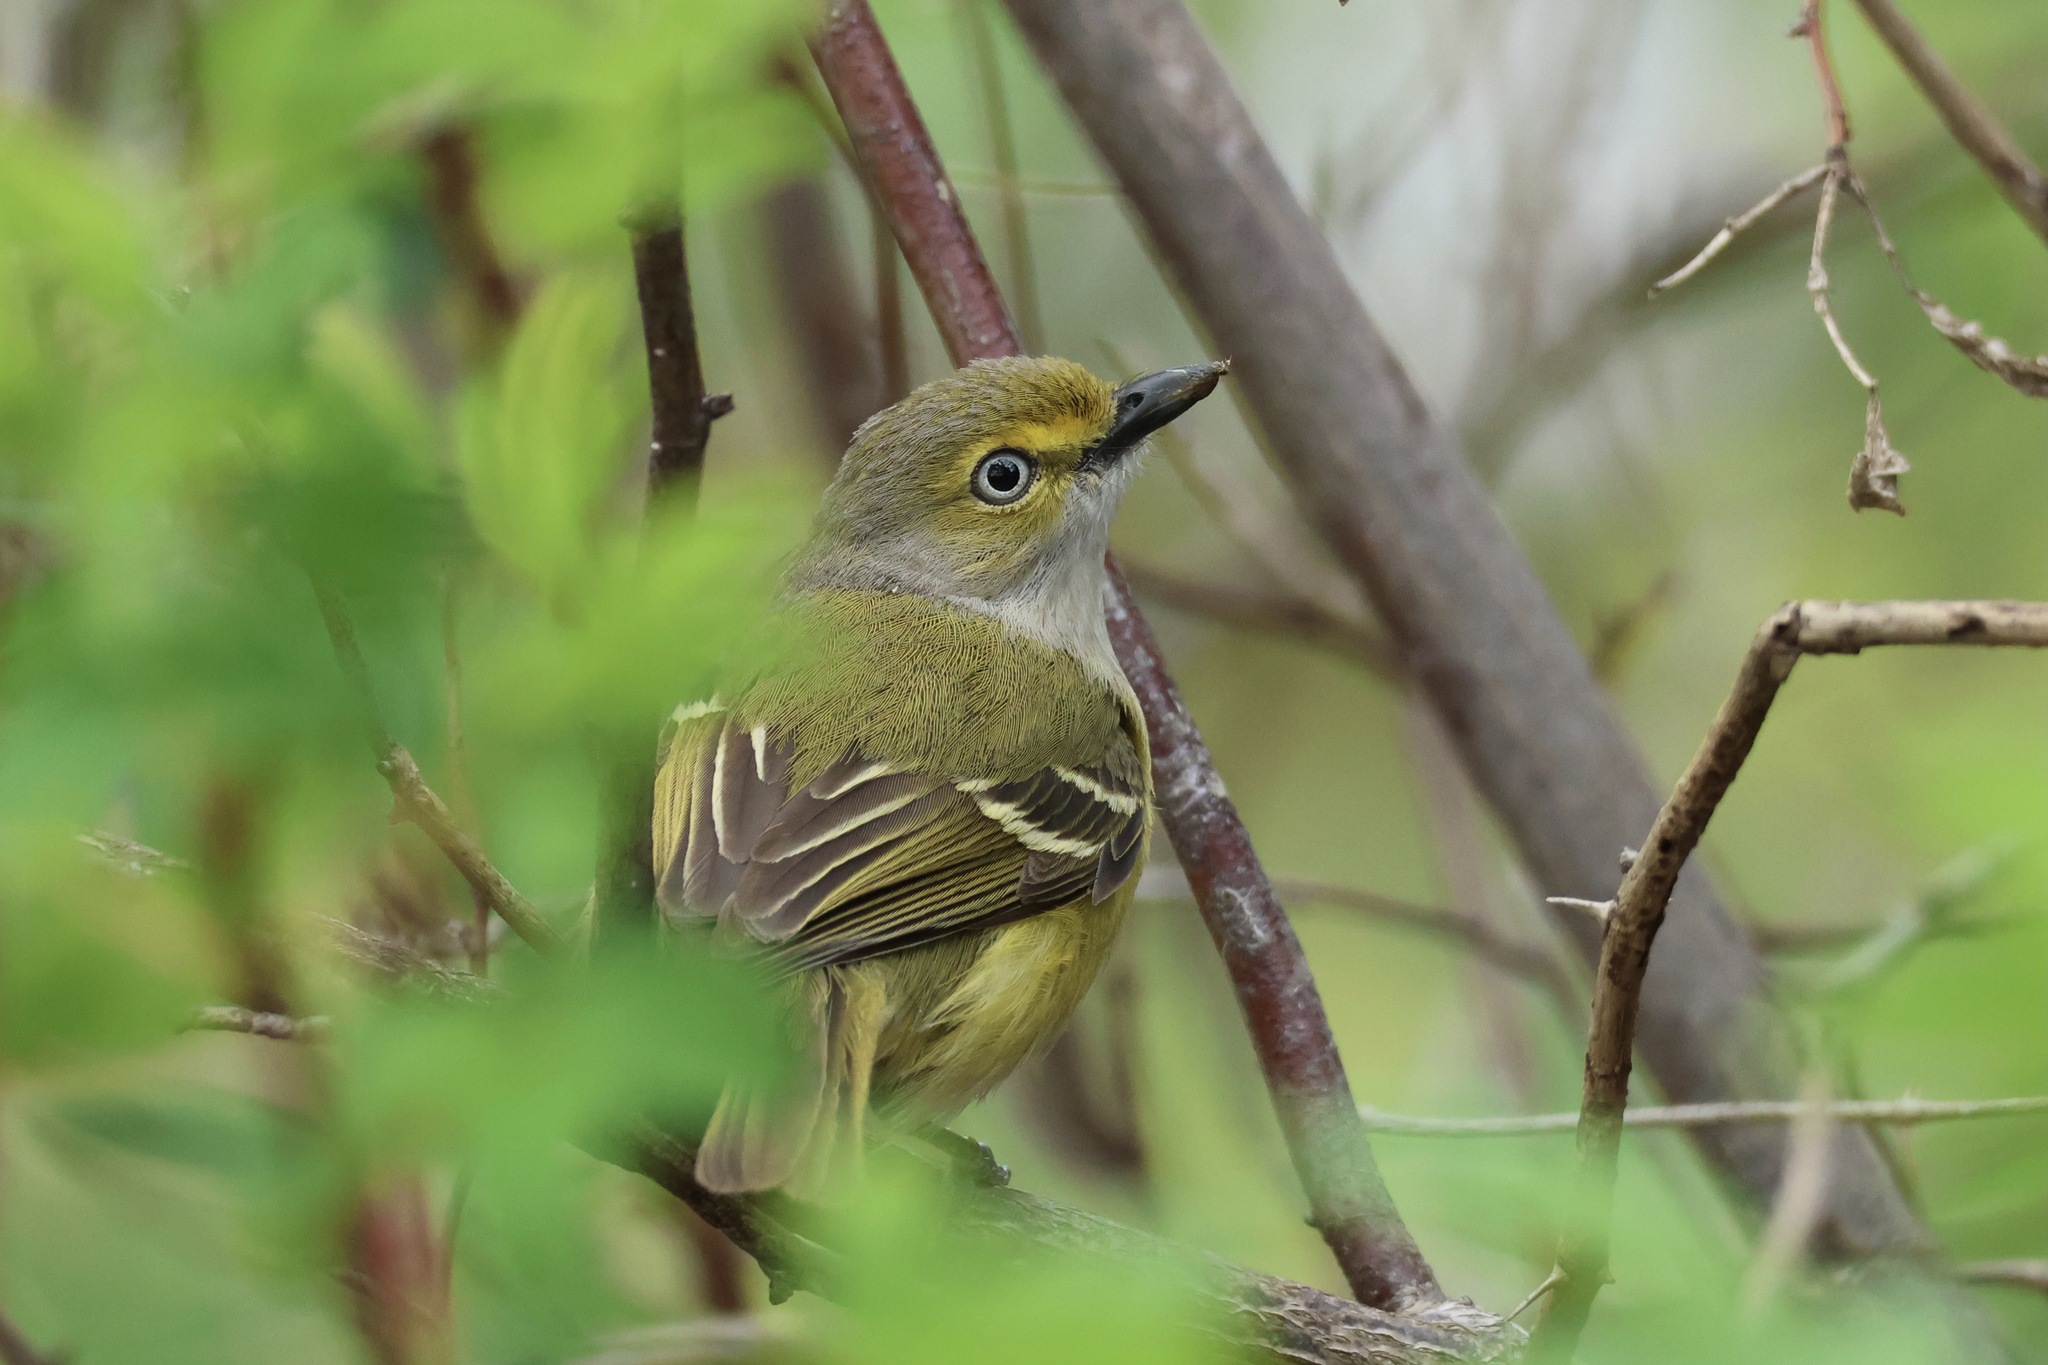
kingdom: Animalia
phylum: Chordata
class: Aves
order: Passeriformes
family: Vireonidae
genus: Vireo
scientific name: Vireo griseus
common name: White-eyed vireo
